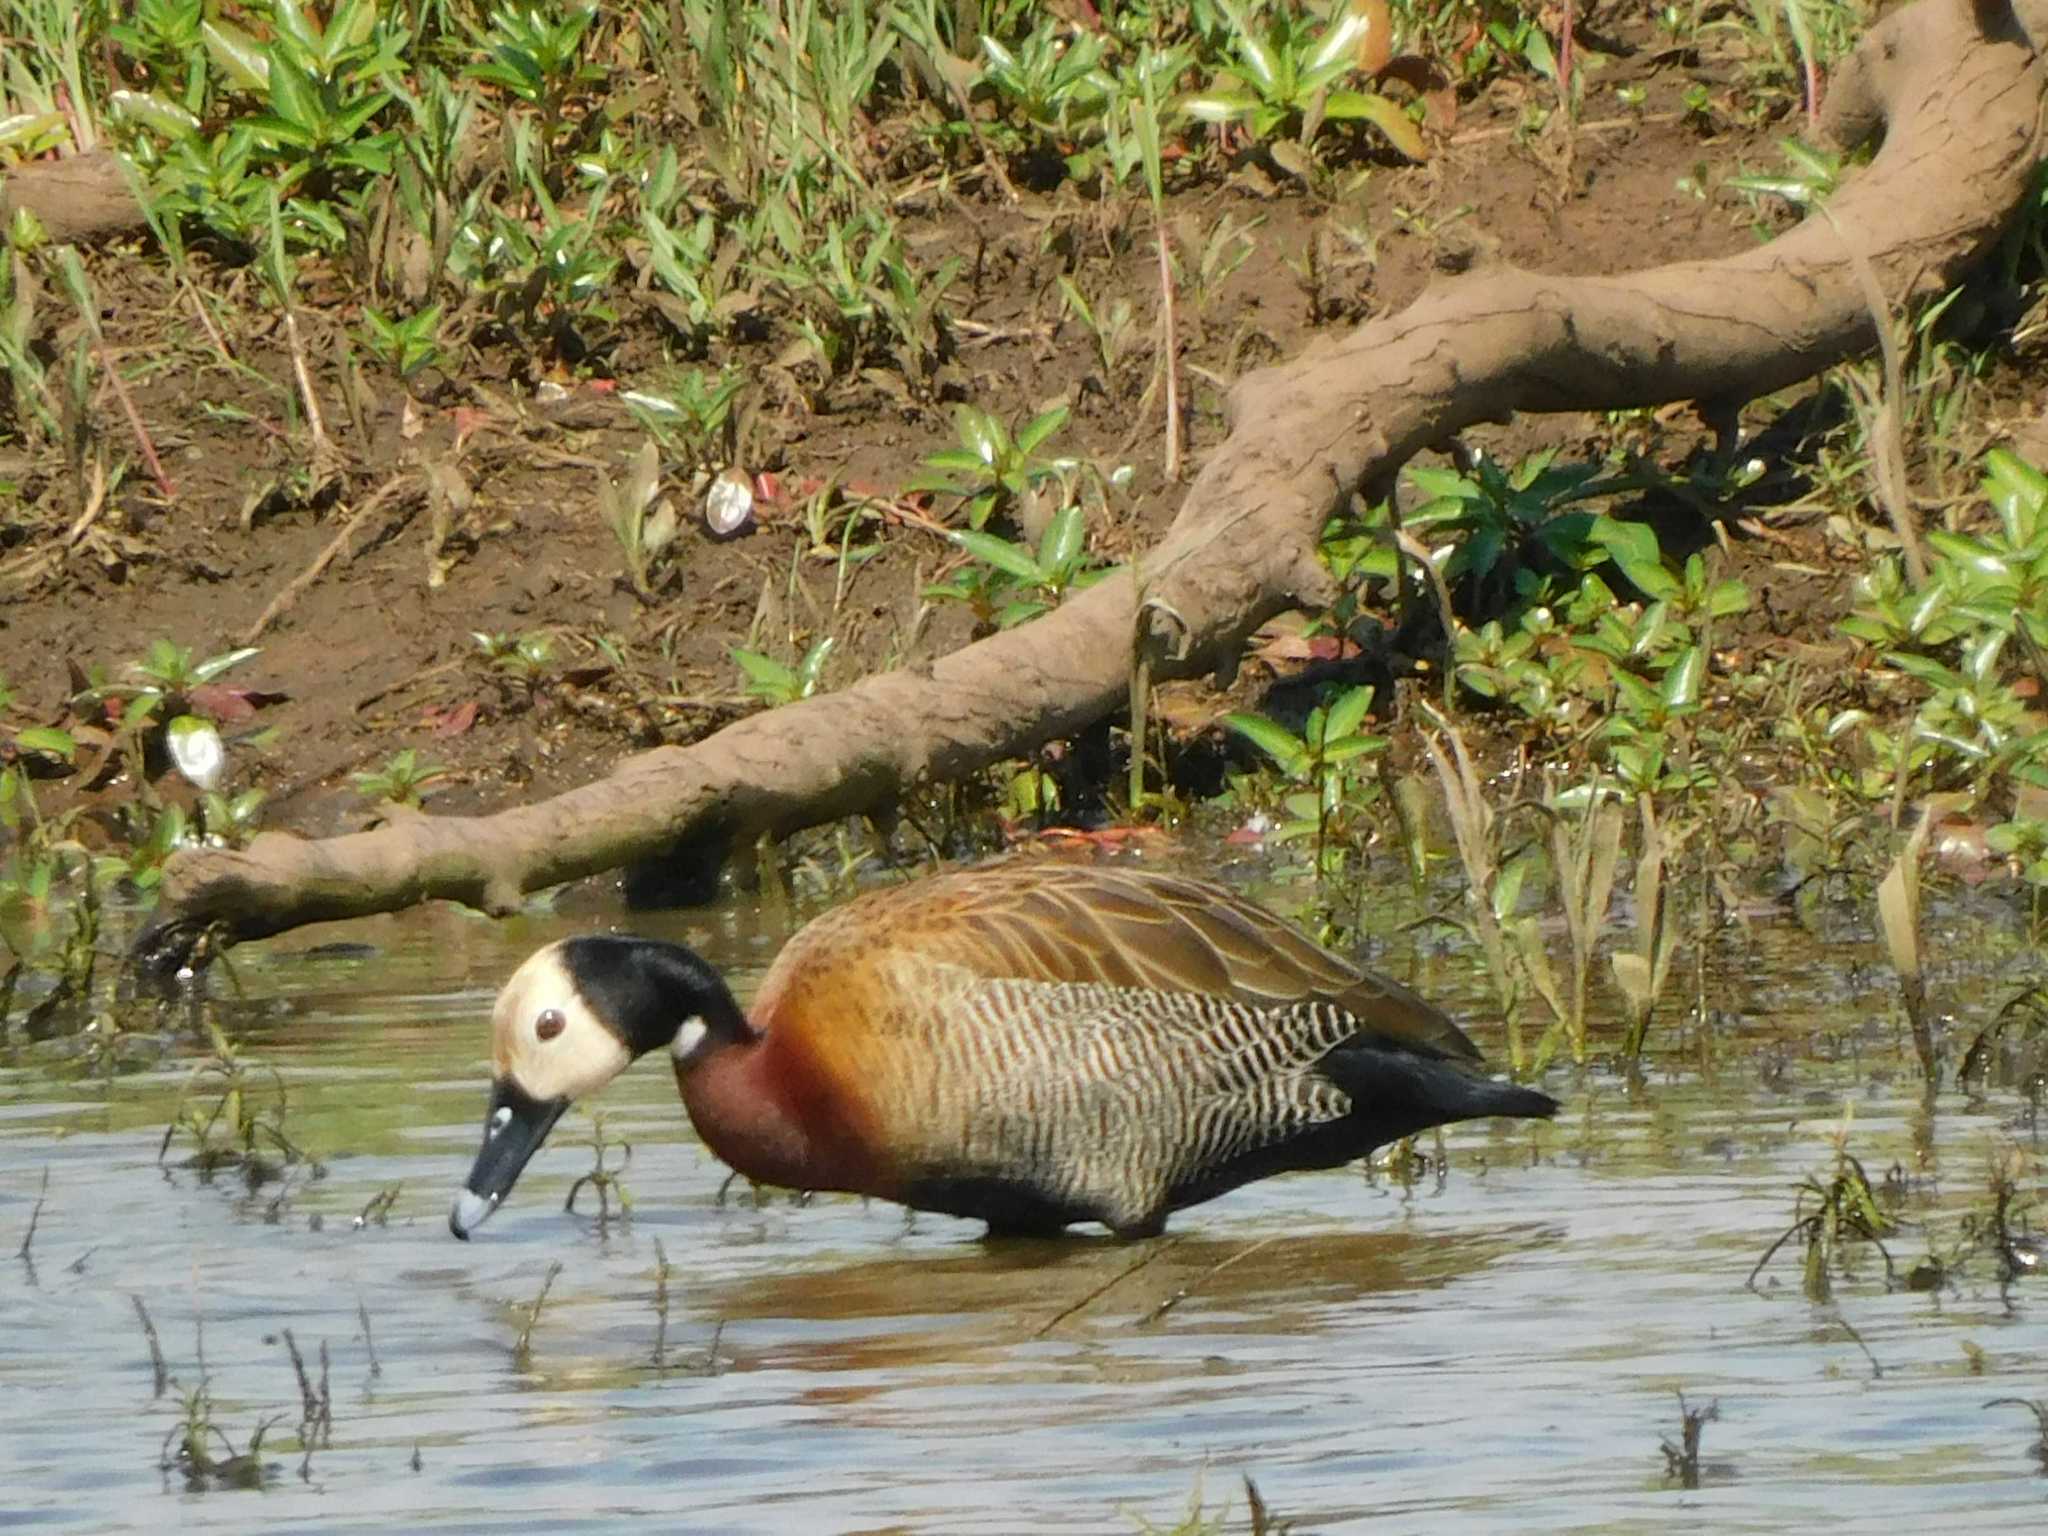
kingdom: Animalia
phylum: Chordata
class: Aves
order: Anseriformes
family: Anatidae
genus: Dendrocygna
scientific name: Dendrocygna viduata
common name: White-faced whistling duck
